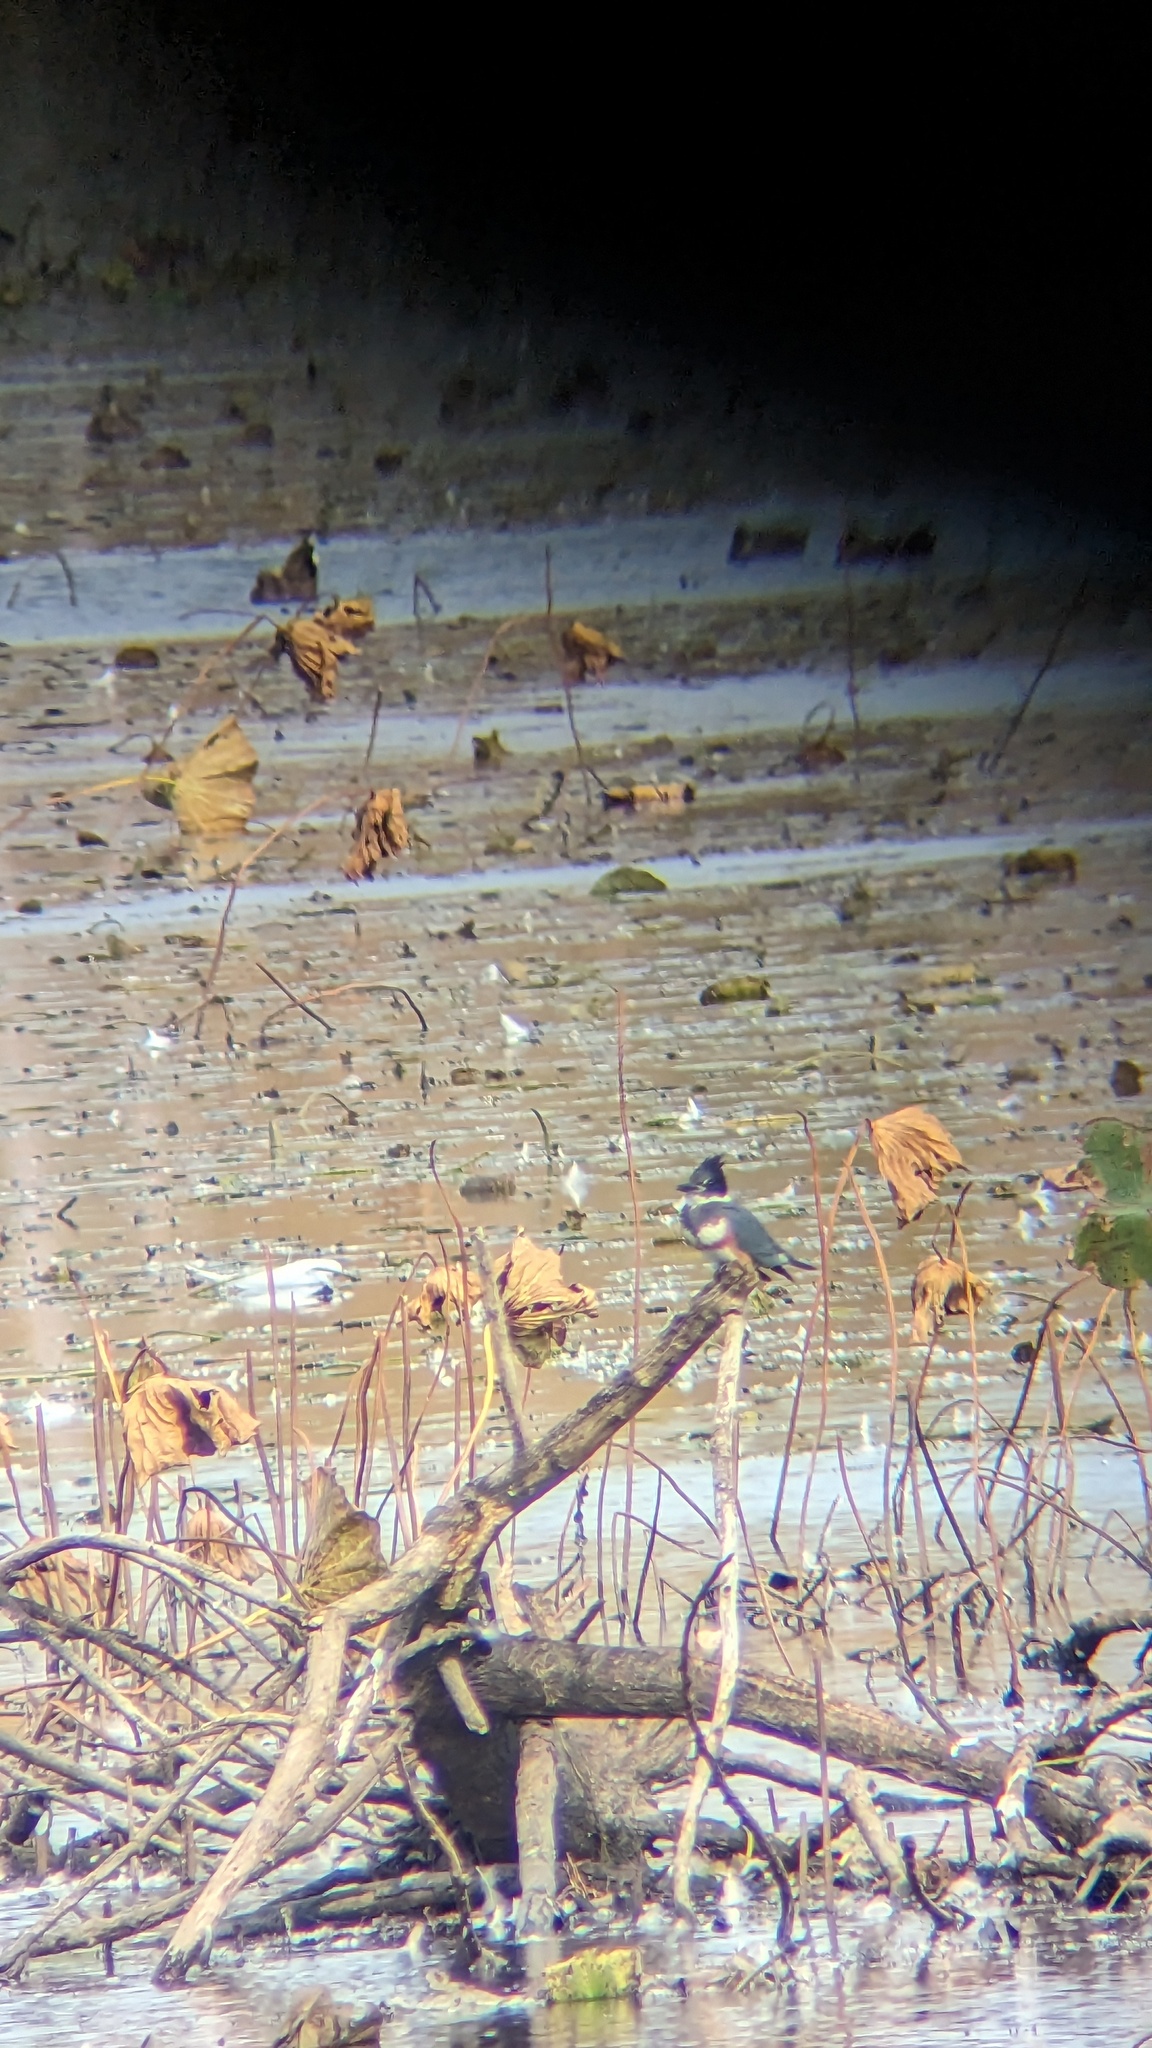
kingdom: Animalia
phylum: Chordata
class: Aves
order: Coraciiformes
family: Alcedinidae
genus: Megaceryle
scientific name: Megaceryle alcyon
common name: Belted kingfisher
